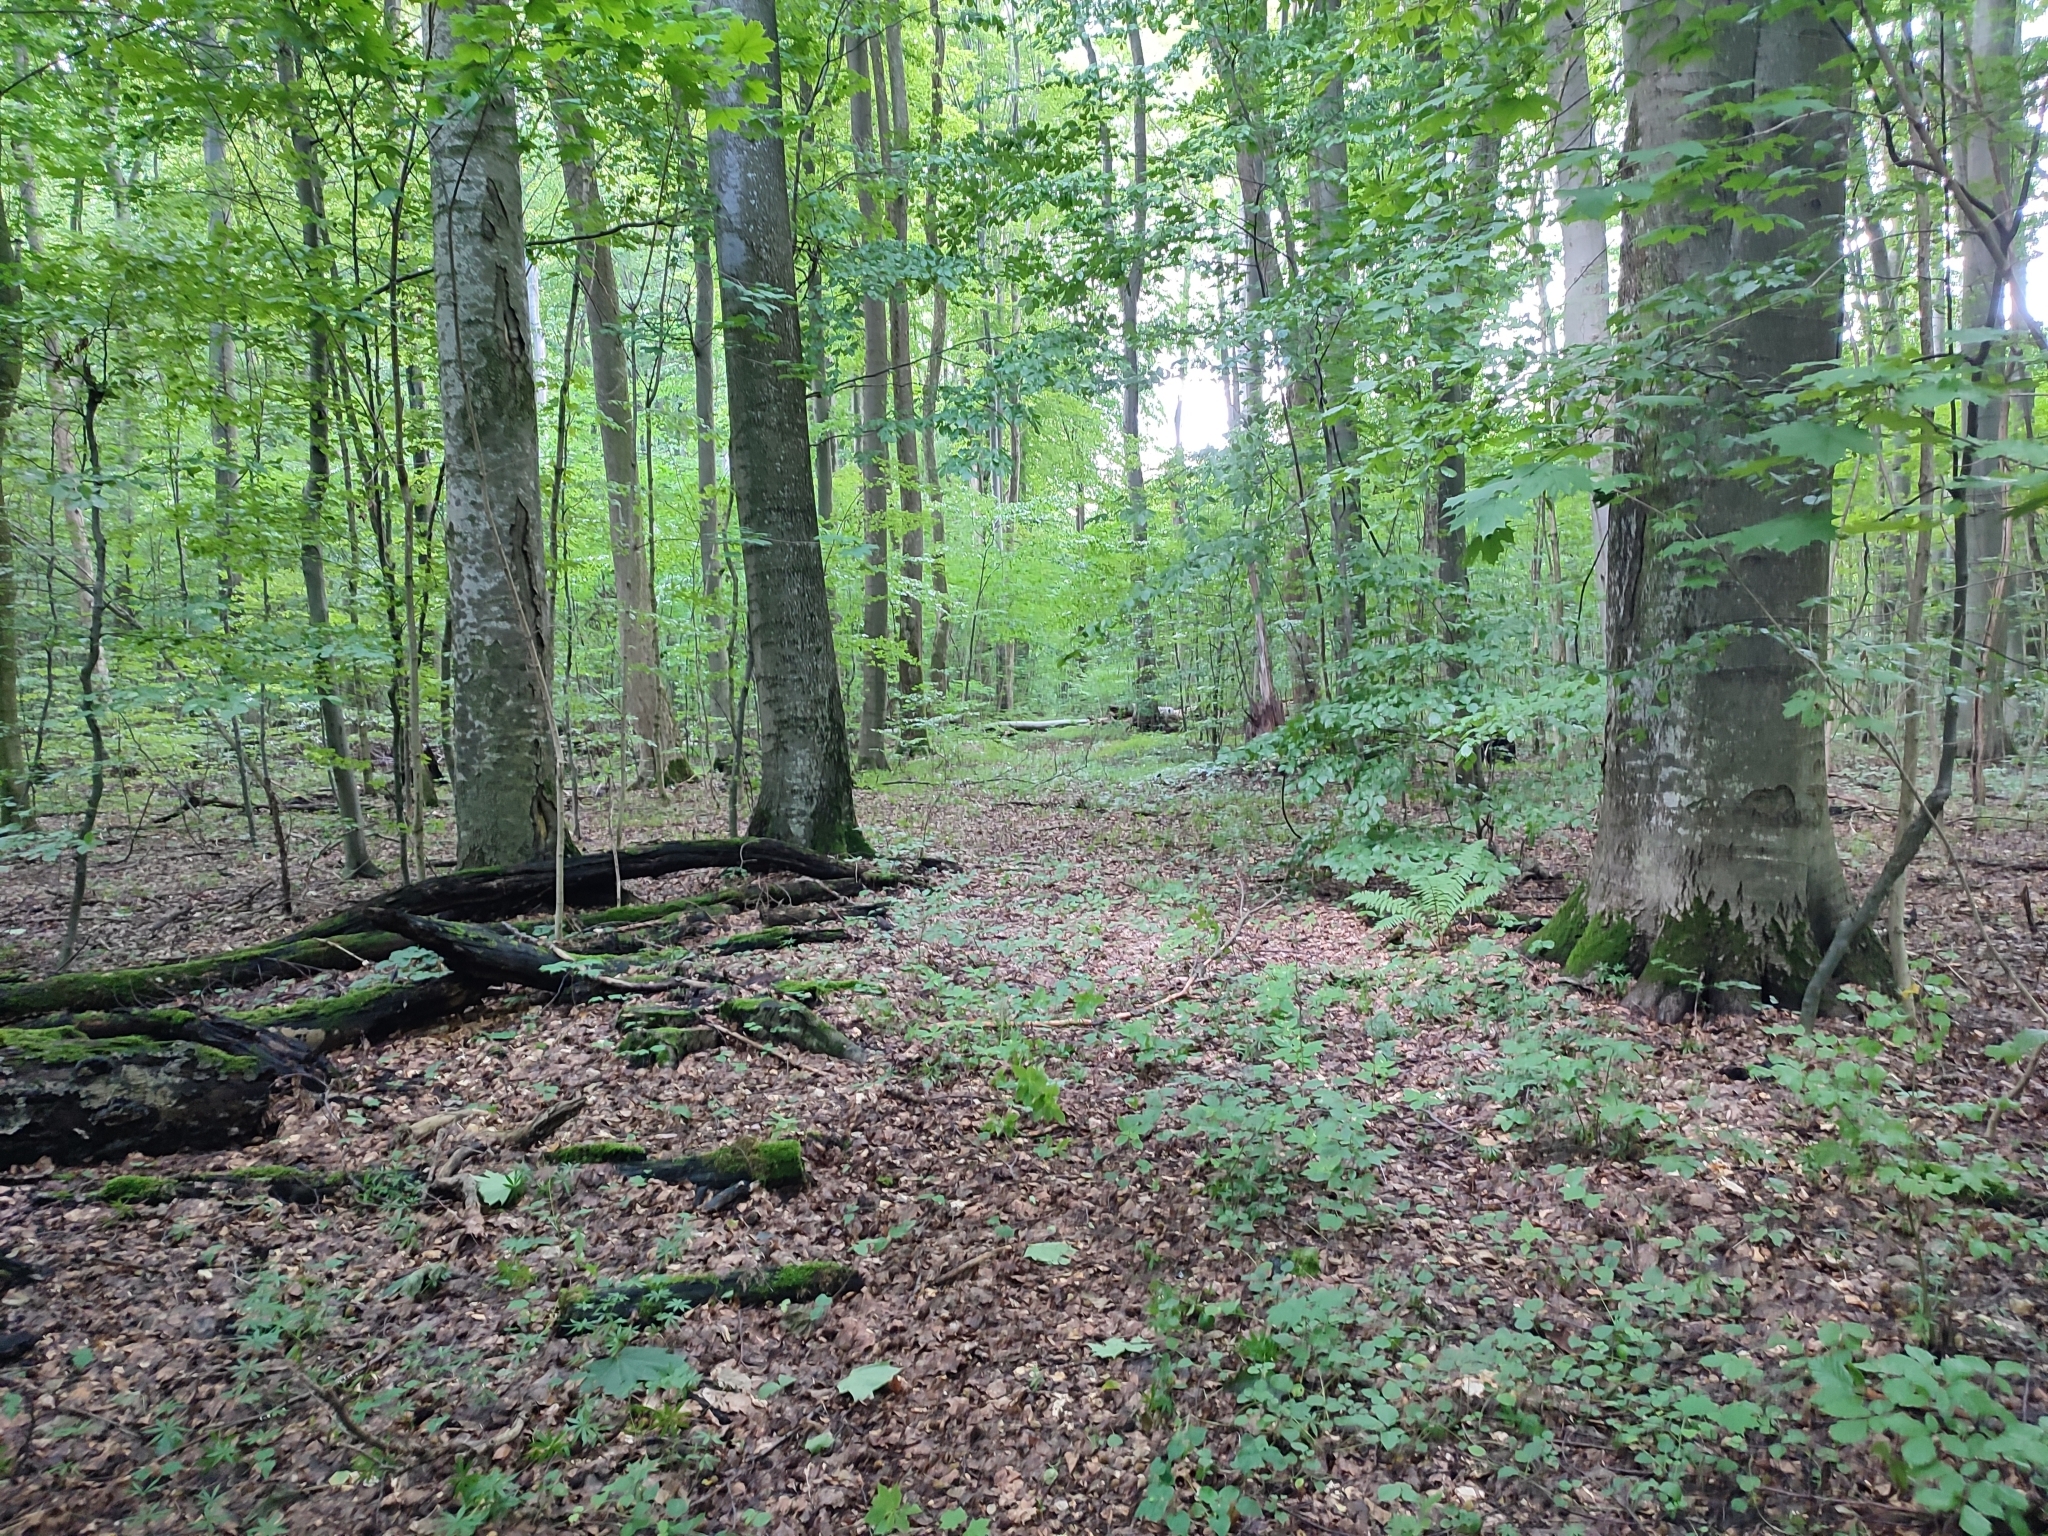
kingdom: Plantae
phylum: Tracheophyta
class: Magnoliopsida
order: Fagales
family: Fagaceae
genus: Fagus
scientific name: Fagus sylvatica
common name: Beech
